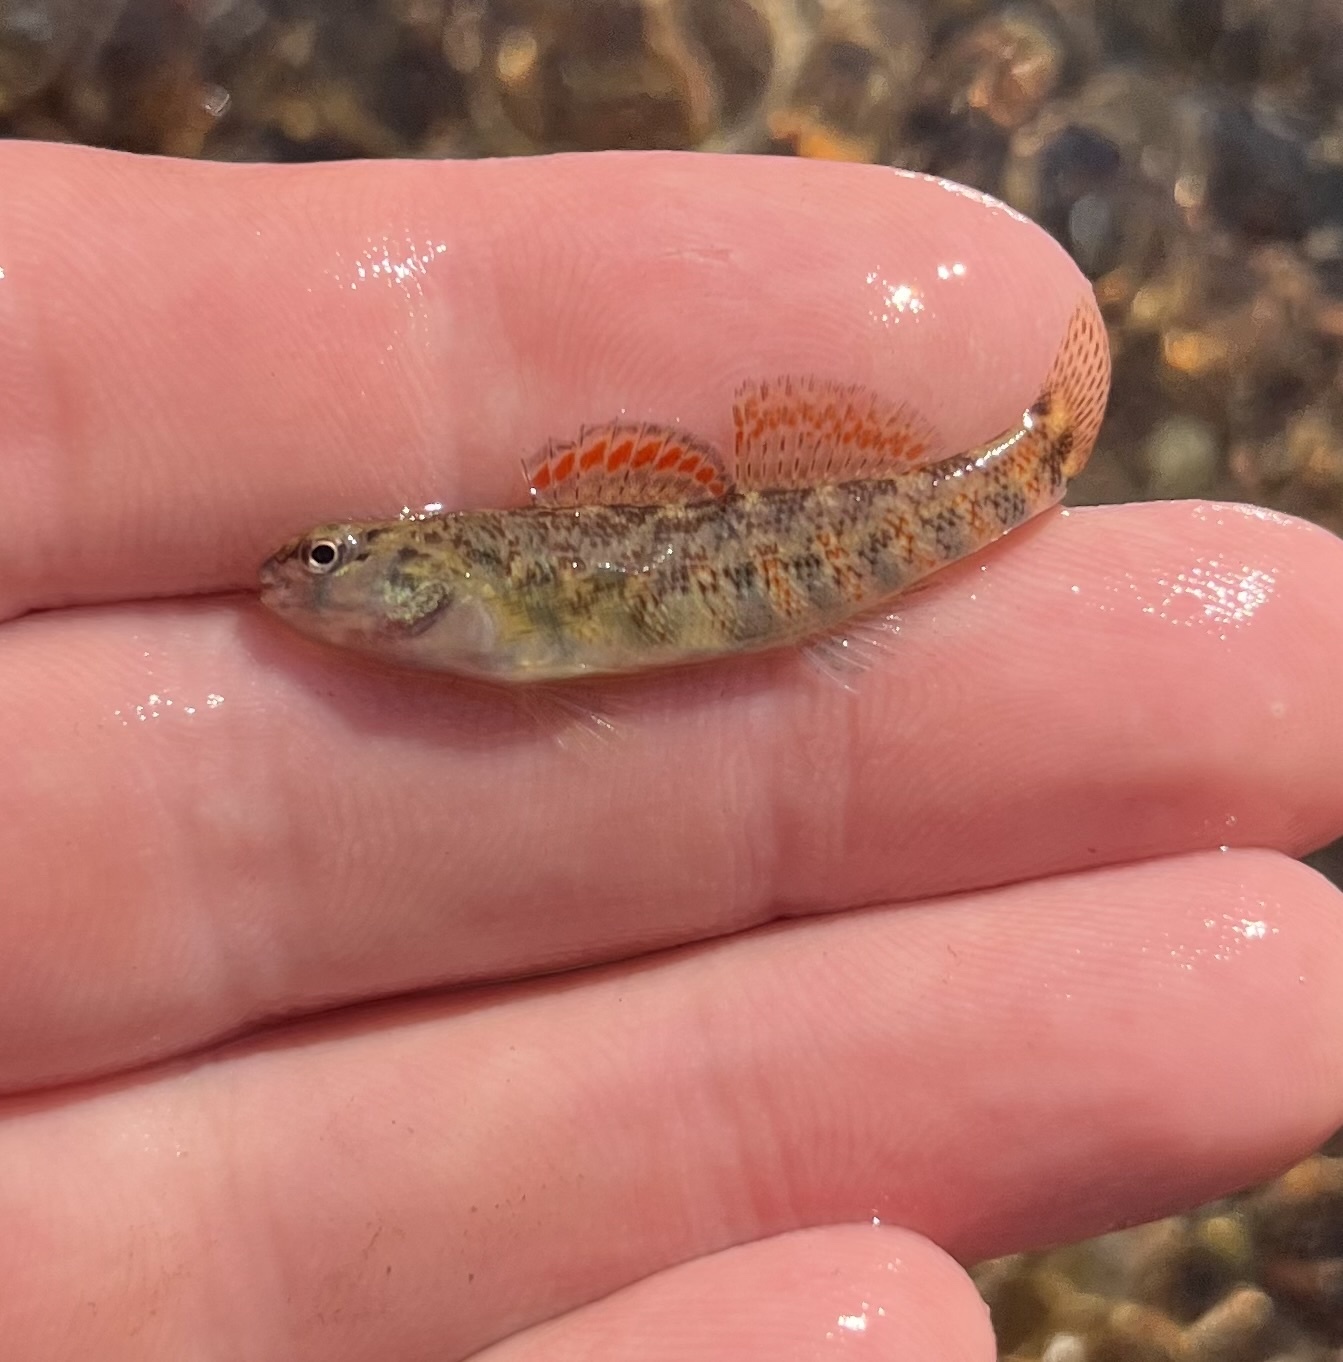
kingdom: Animalia
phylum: Chordata
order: Perciformes
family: Percidae
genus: Etheostoma
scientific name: Etheostoma lepidum
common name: Greenthroat darter
